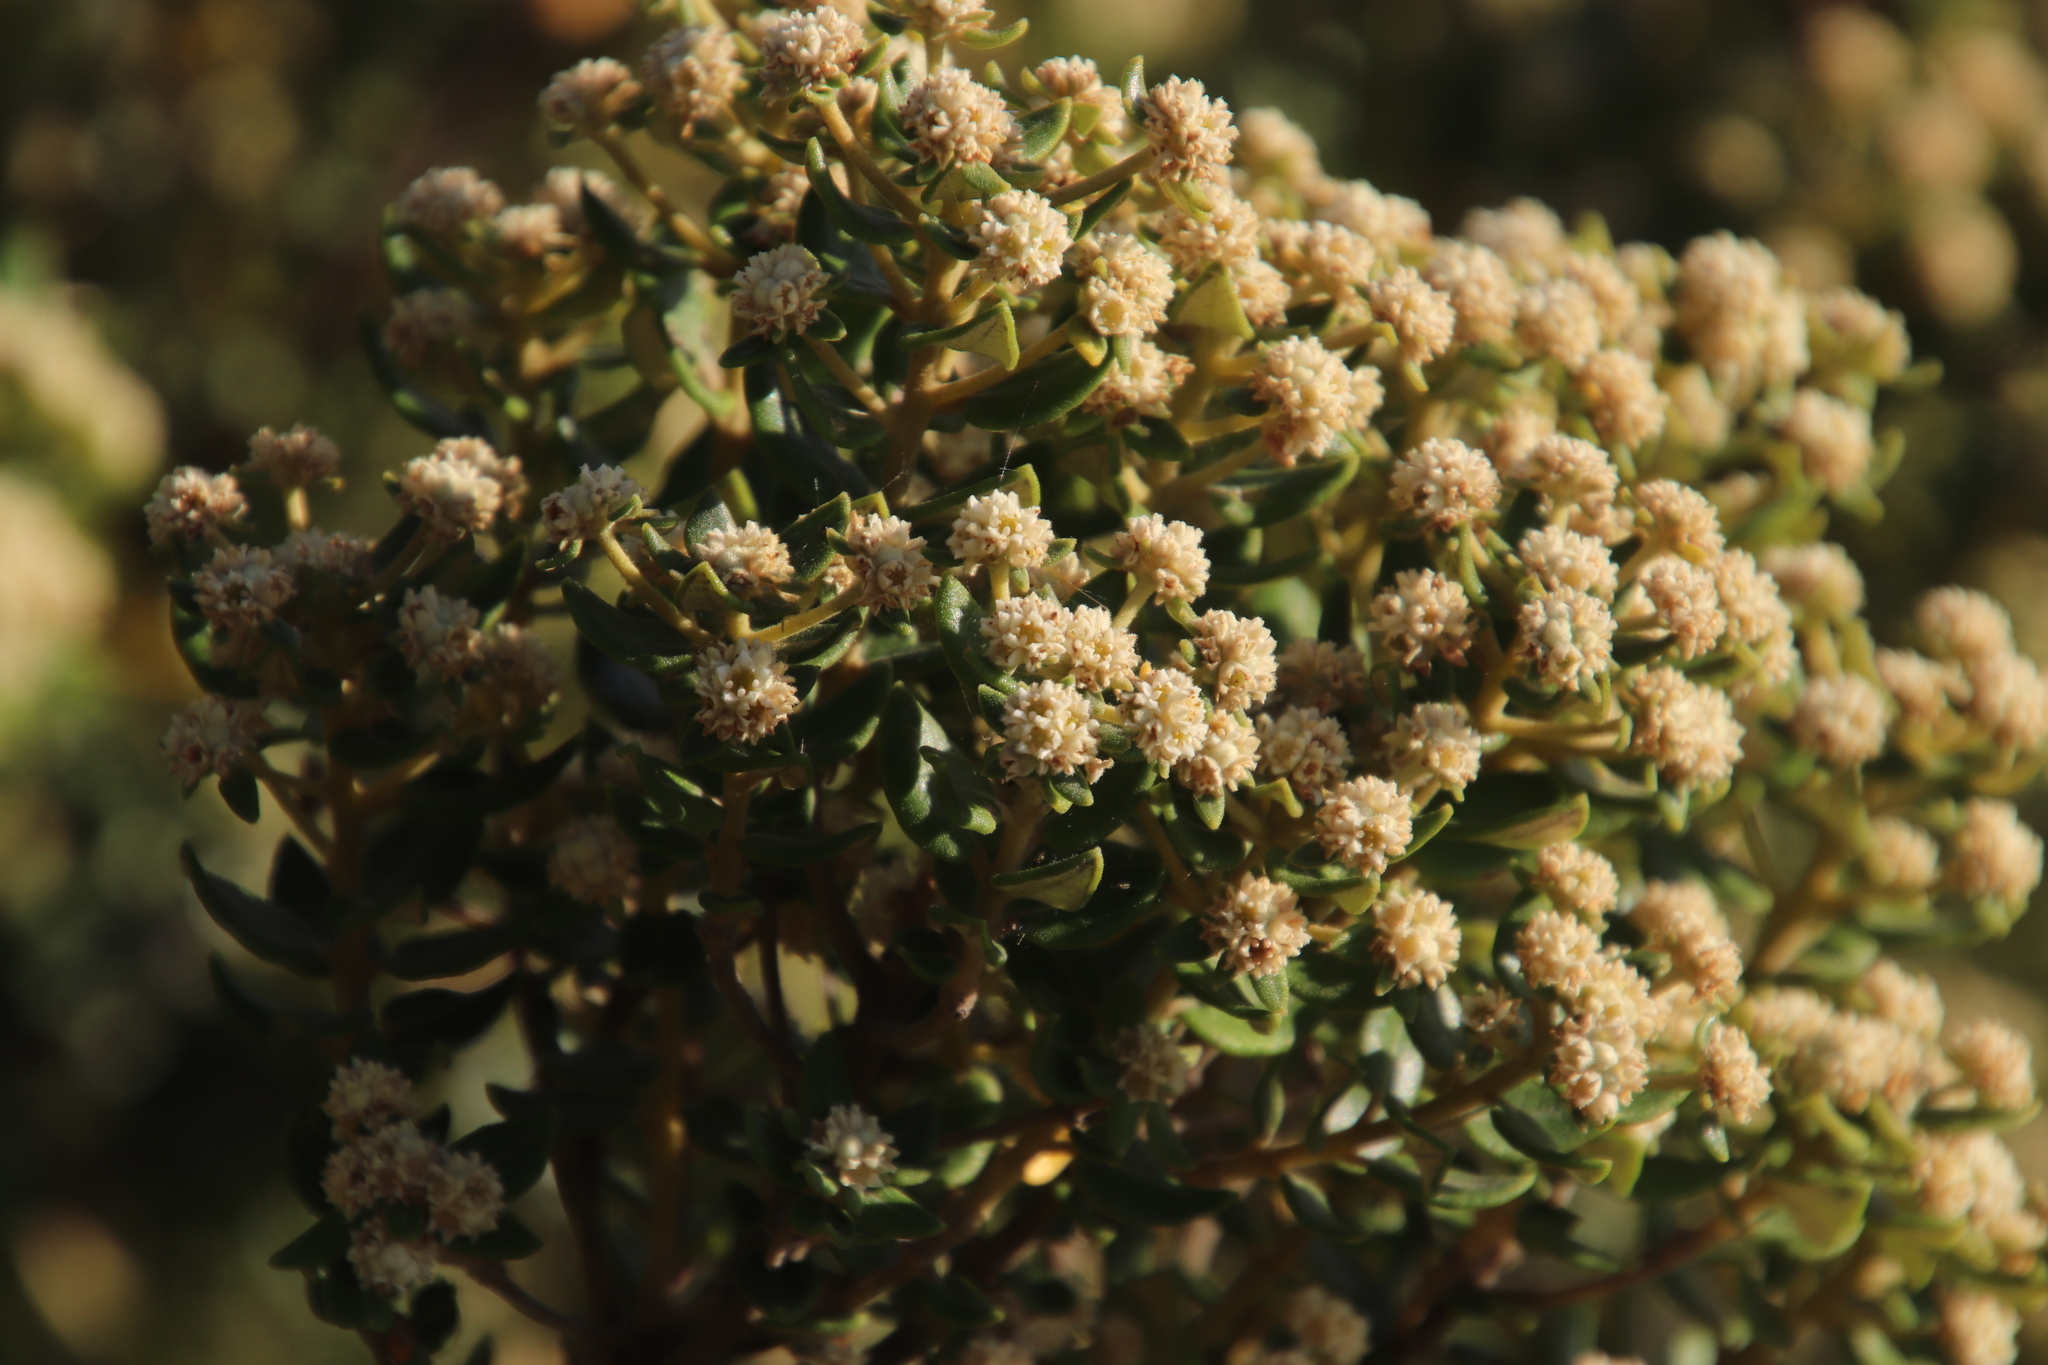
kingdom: Plantae
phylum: Tracheophyta
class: Magnoliopsida
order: Rosales
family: Rhamnaceae
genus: Phylica
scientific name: Phylica buxifolia
